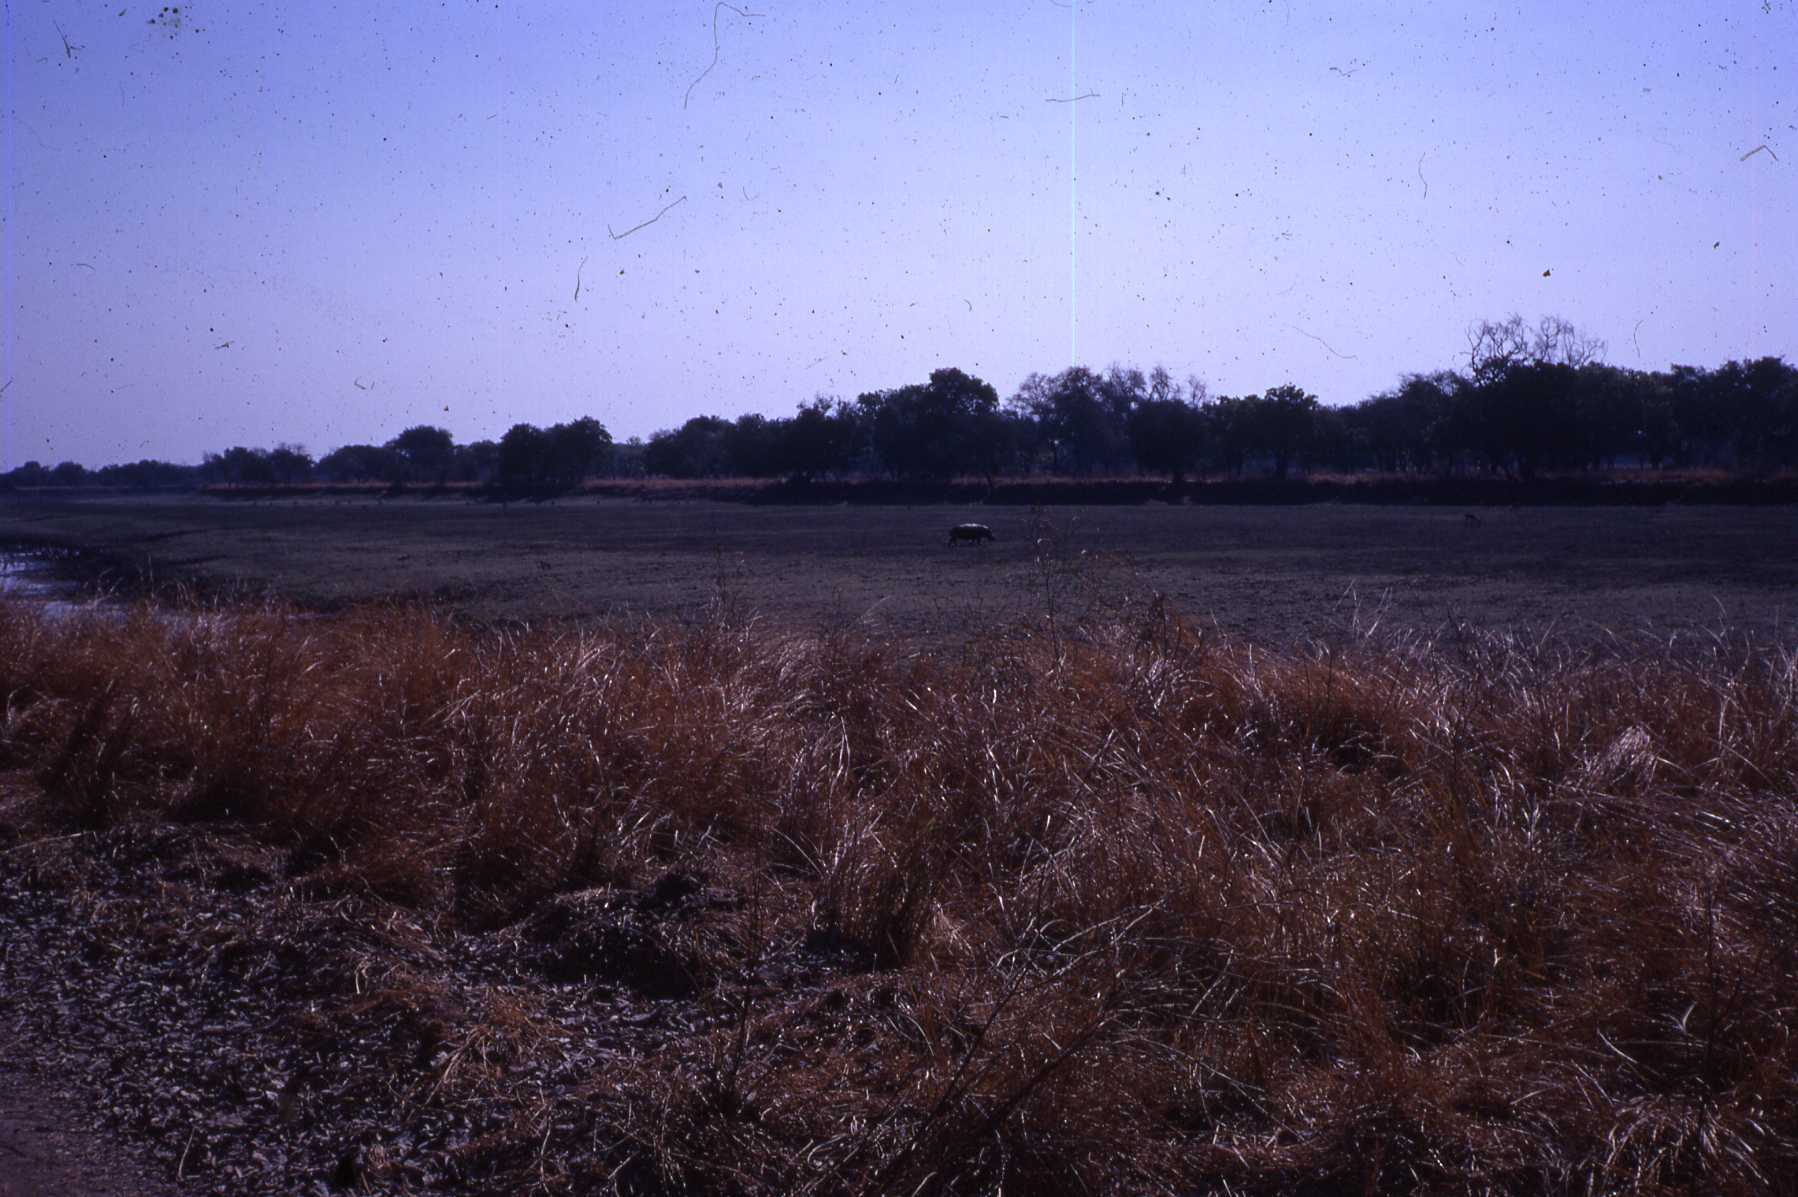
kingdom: Animalia
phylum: Chordata
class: Mammalia
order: Artiodactyla
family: Hippopotamidae
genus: Hippopotamus
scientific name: Hippopotamus amphibius
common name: Common hippopotamus
